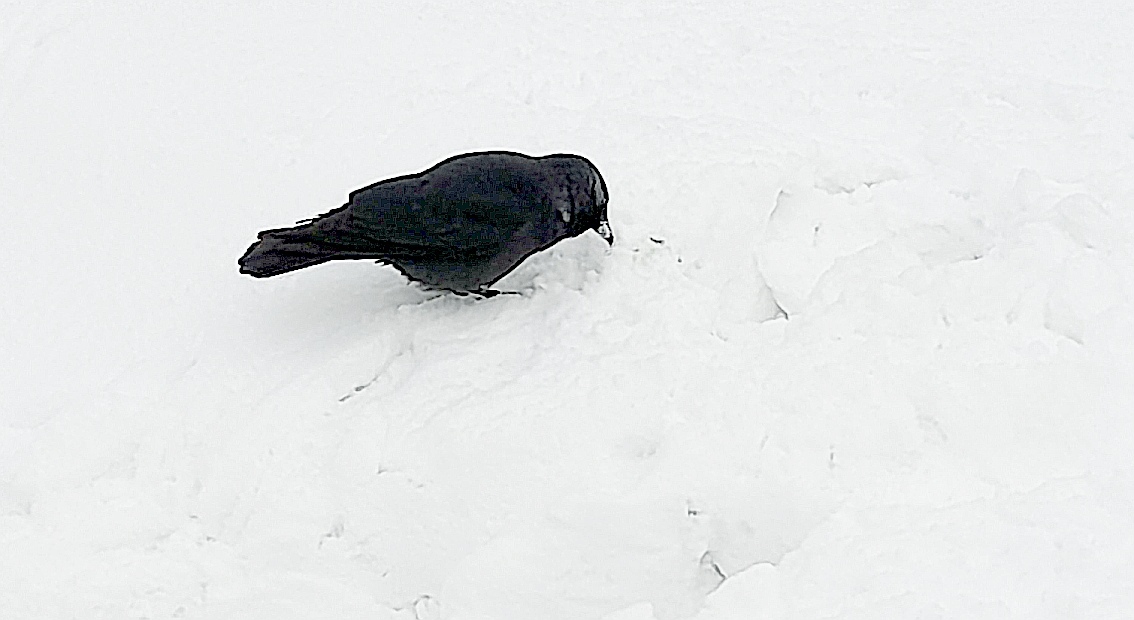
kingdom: Animalia
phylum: Chordata
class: Aves
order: Passeriformes
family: Corvidae
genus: Coloeus
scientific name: Coloeus monedula
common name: Western jackdaw
